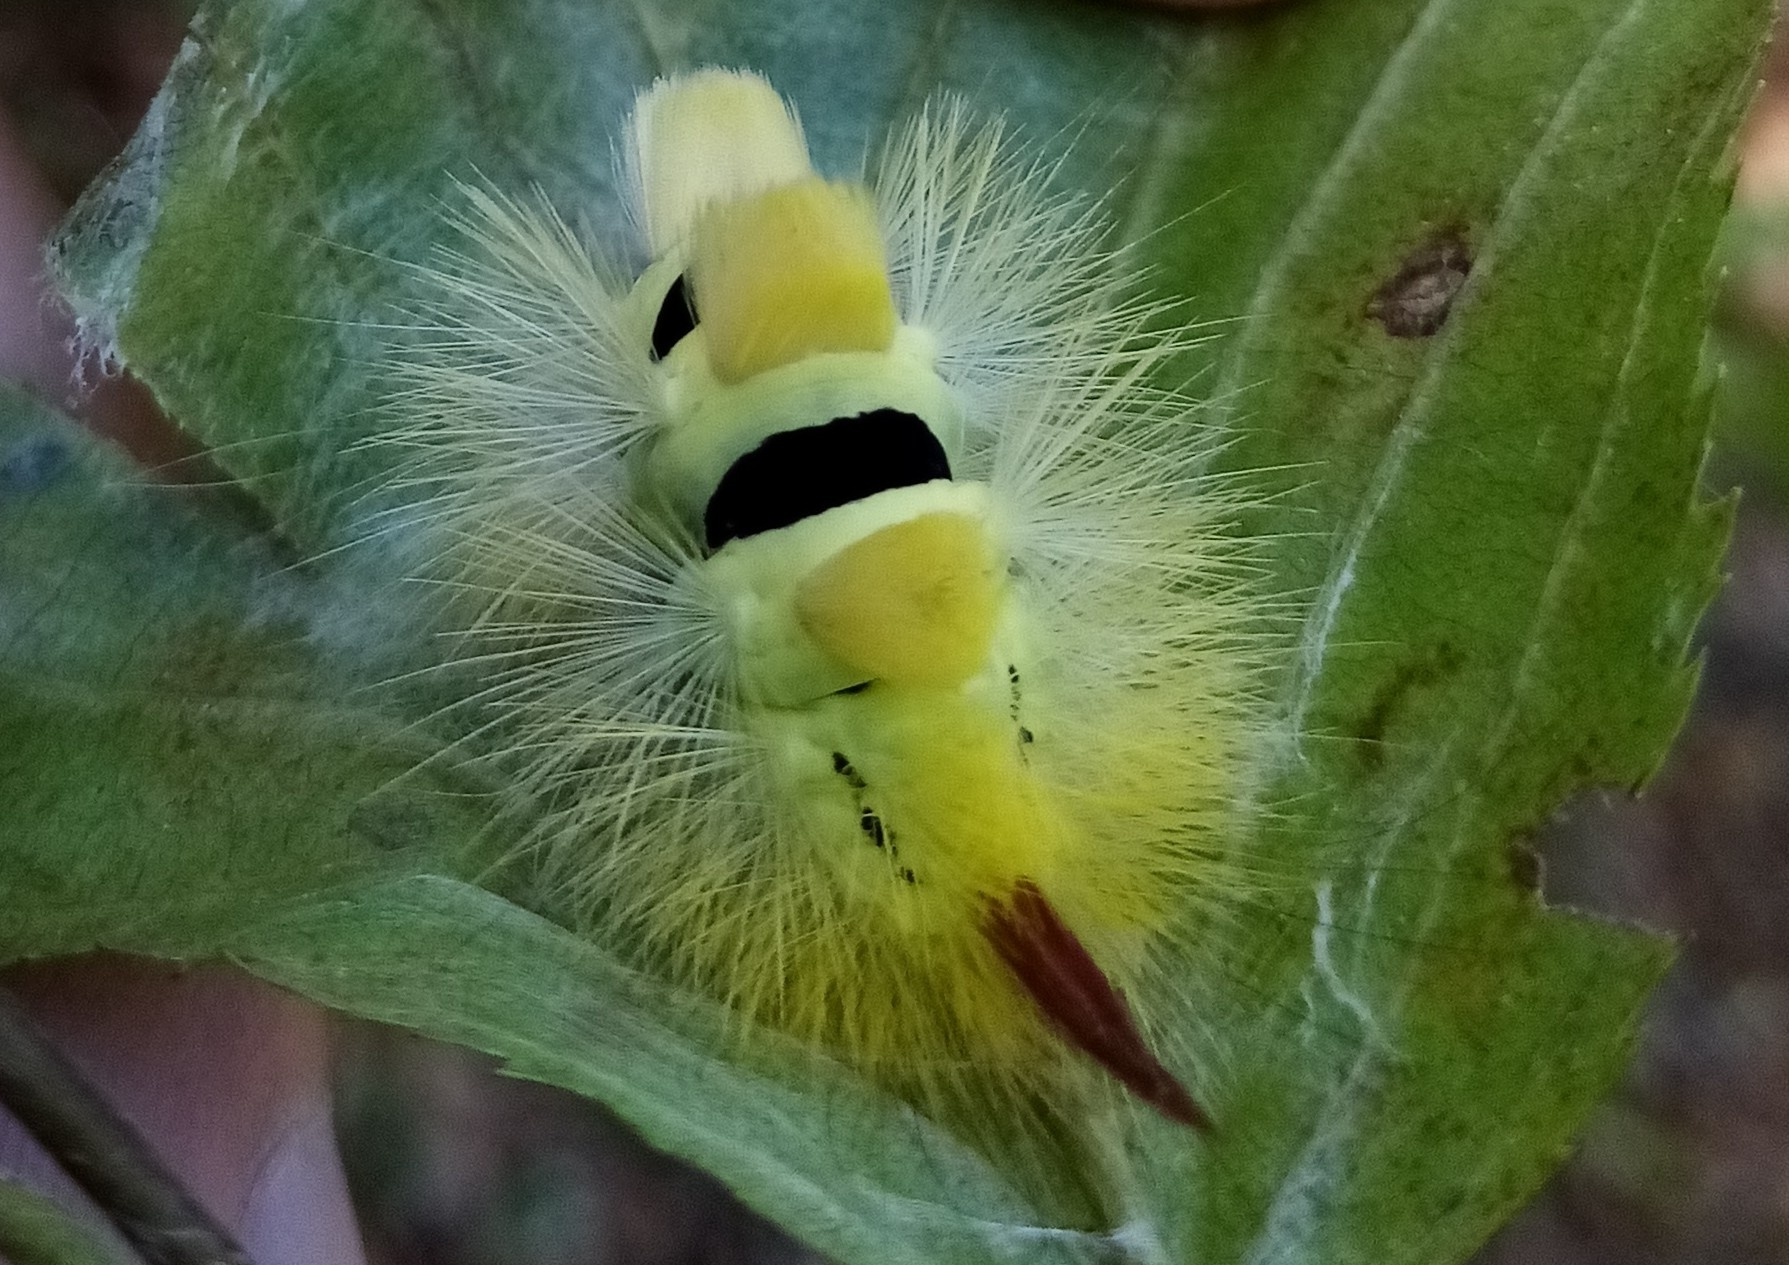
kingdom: Animalia
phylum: Arthropoda
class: Insecta
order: Lepidoptera
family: Erebidae
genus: Calliteara
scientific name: Calliteara pudibunda
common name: Pale tussock
